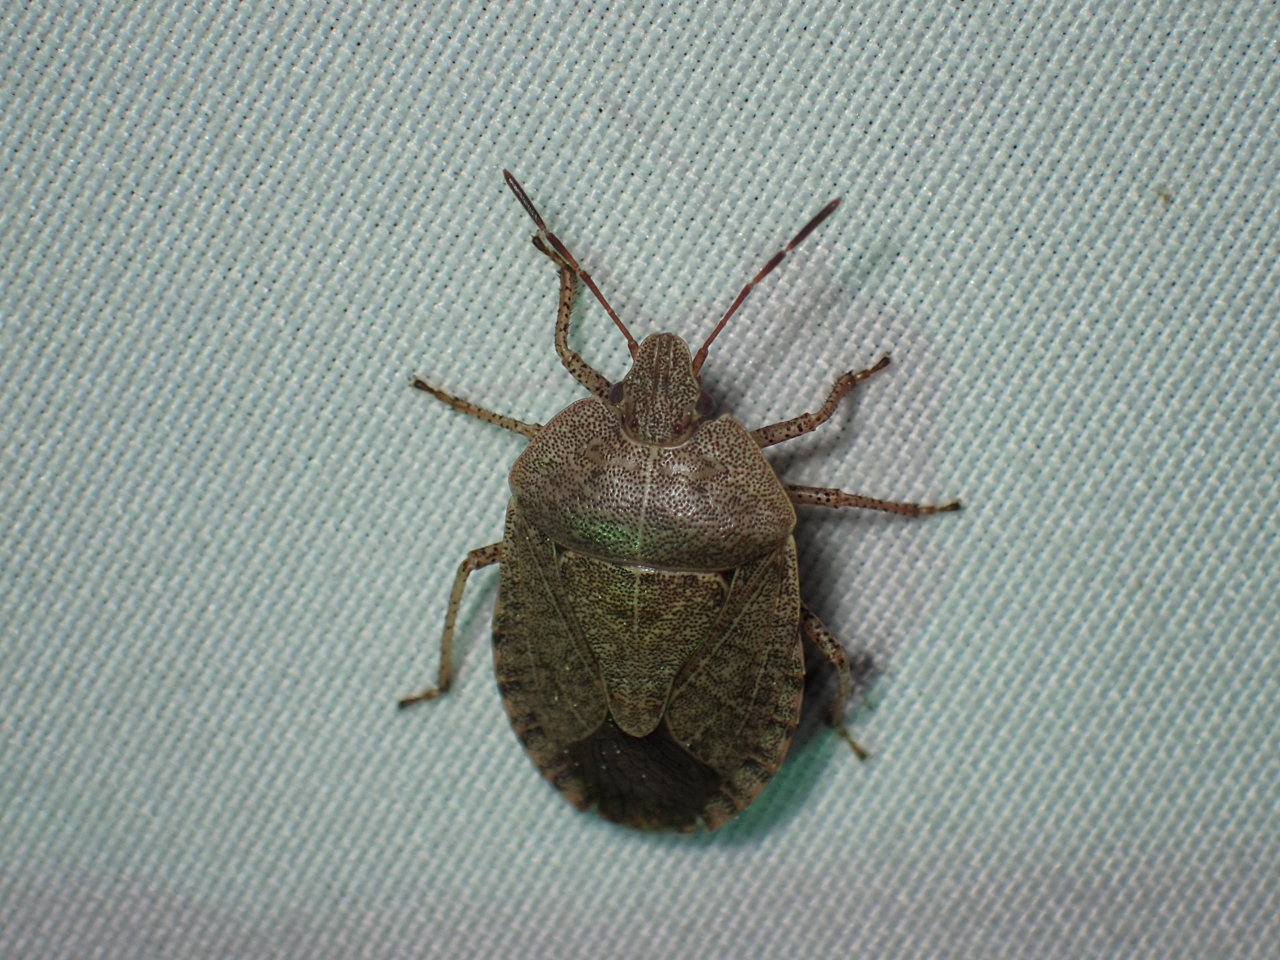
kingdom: Animalia
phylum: Arthropoda
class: Insecta
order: Hemiptera
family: Pentatomidae
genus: Menecles
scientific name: Menecles insertus
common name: Elf shoe stink bug
